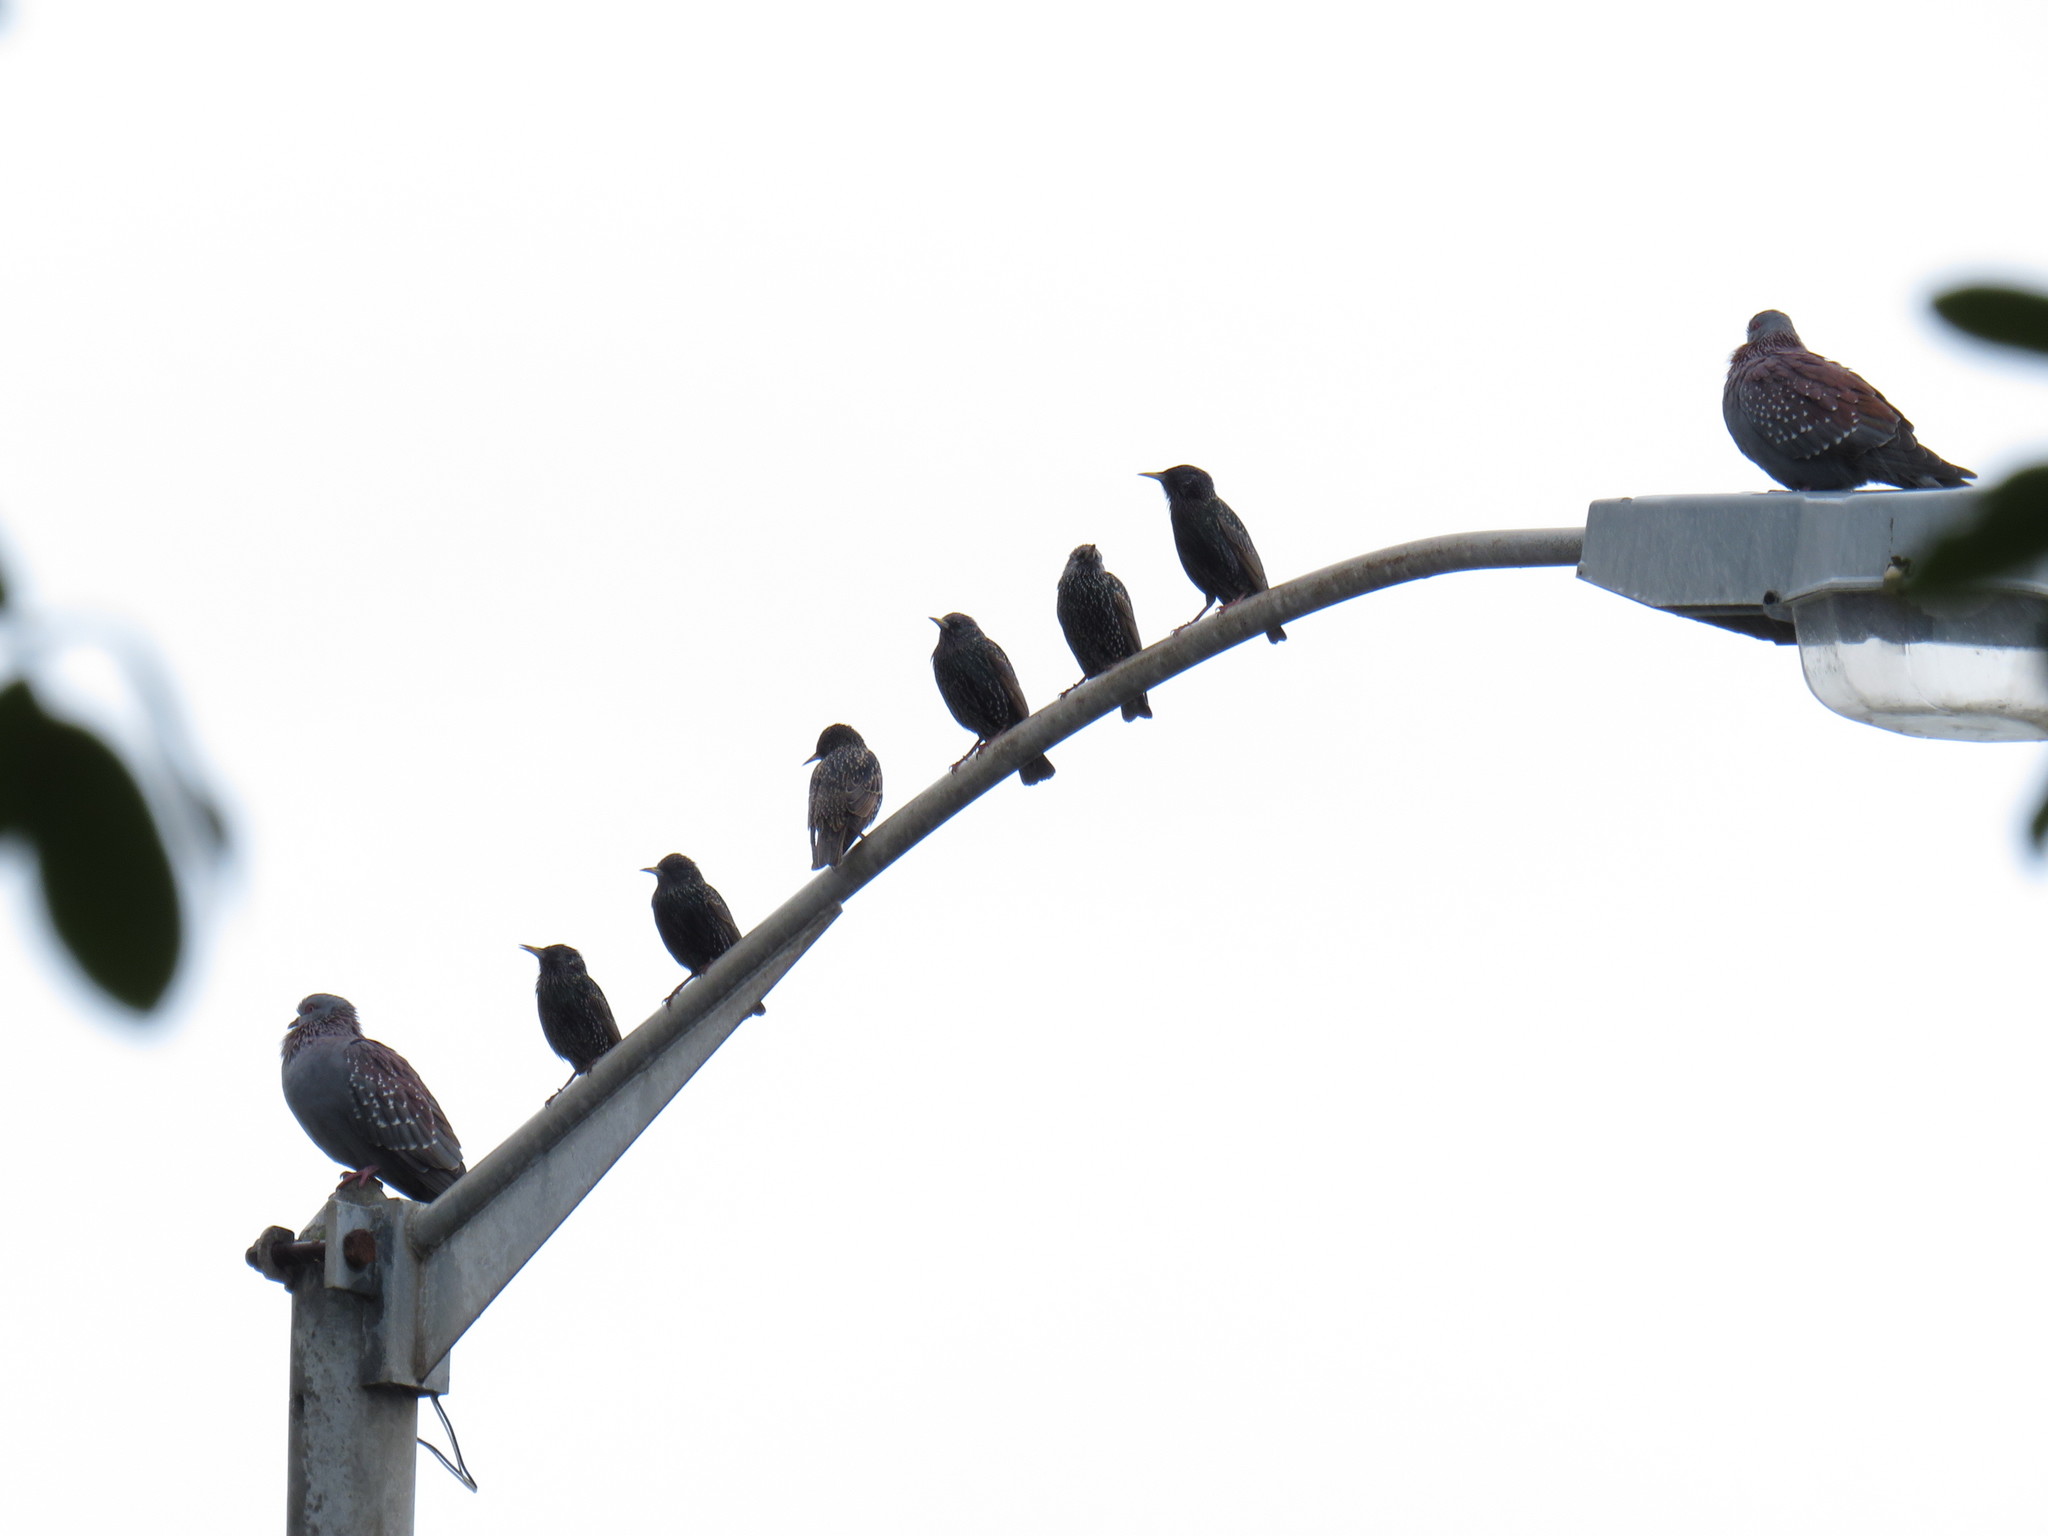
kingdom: Animalia
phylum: Chordata
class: Aves
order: Passeriformes
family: Sturnidae
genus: Sturnus
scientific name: Sturnus vulgaris
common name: Common starling
